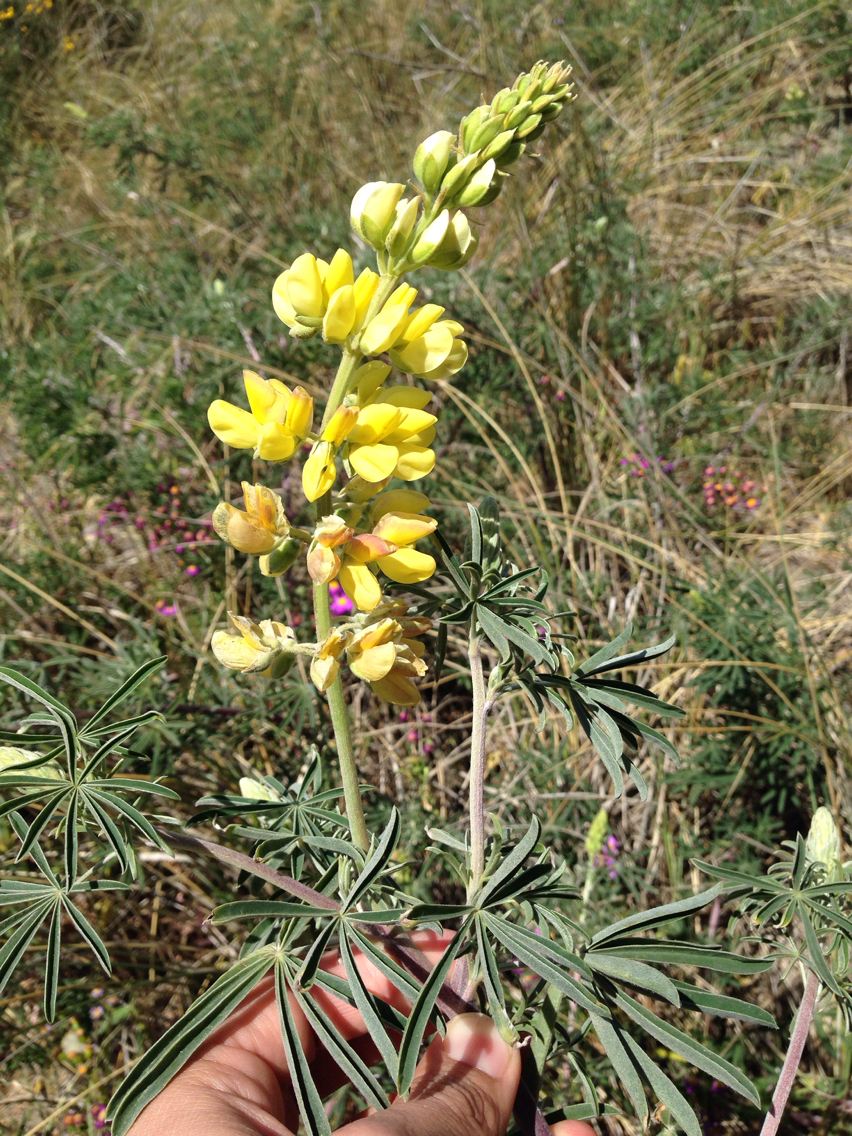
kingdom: Plantae
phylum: Tracheophyta
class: Magnoliopsida
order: Fabales
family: Fabaceae
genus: Lupinus
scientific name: Lupinus arboreus
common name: Yellow bush lupine
